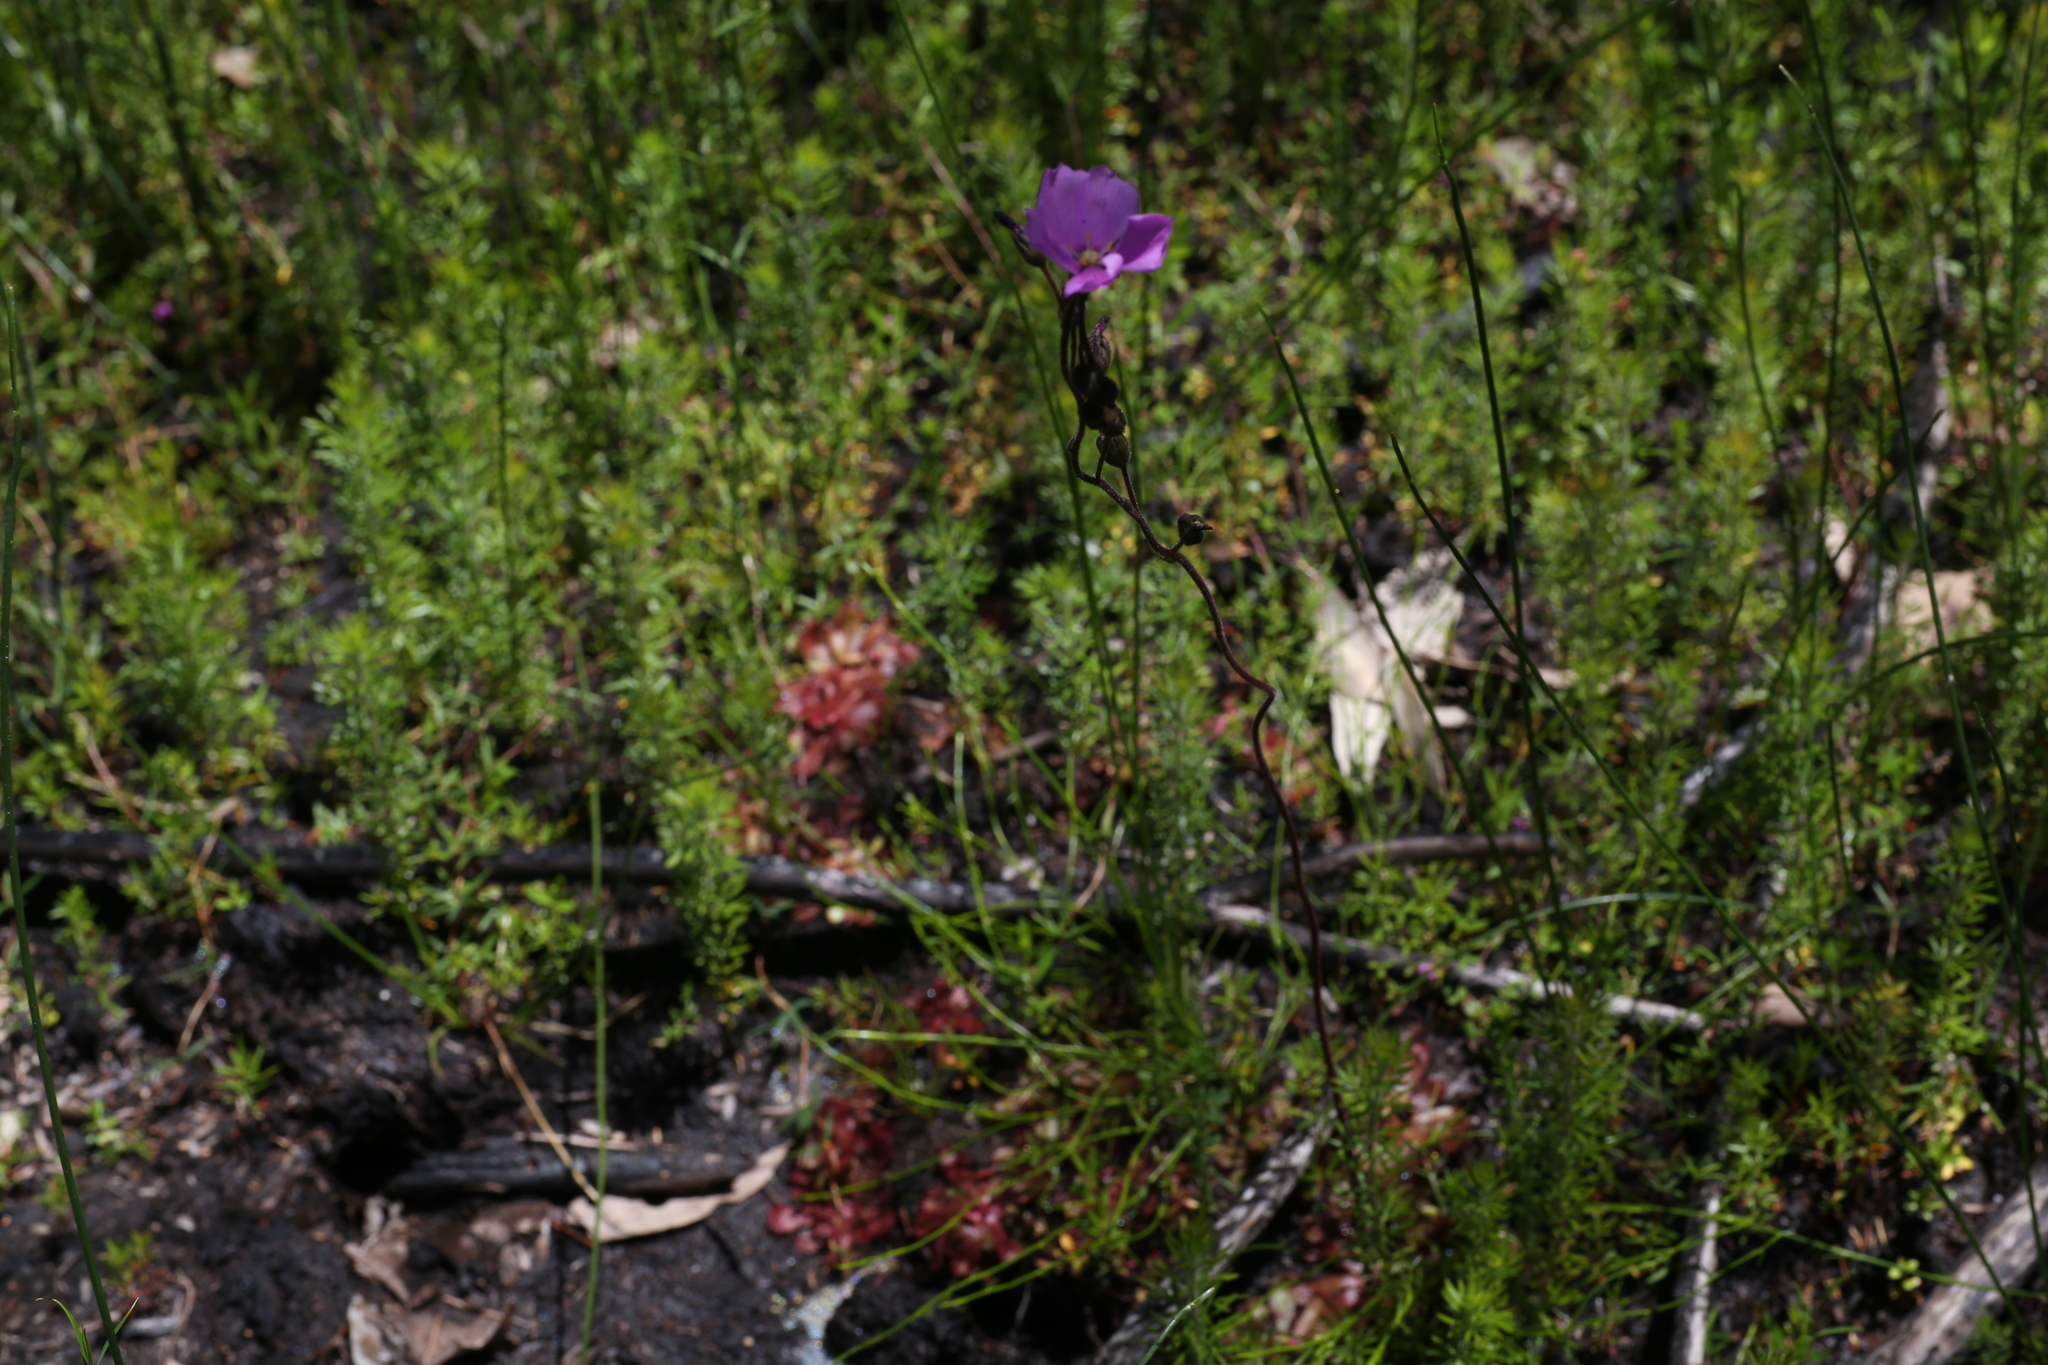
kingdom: Plantae
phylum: Tracheophyta
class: Magnoliopsida
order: Caryophyllales
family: Droseraceae
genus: Drosera
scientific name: Drosera hamiltonii
